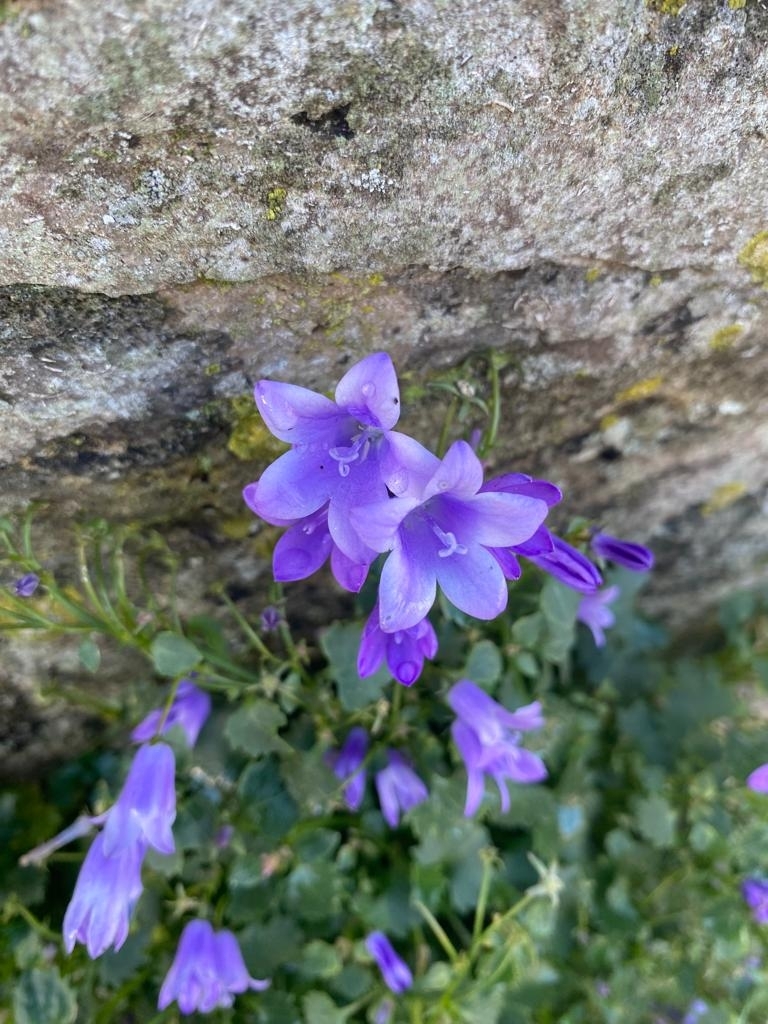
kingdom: Plantae
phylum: Tracheophyta
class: Magnoliopsida
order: Asterales
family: Campanulaceae
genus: Campanula
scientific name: Campanula portenschlagiana
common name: Adria bellflower
